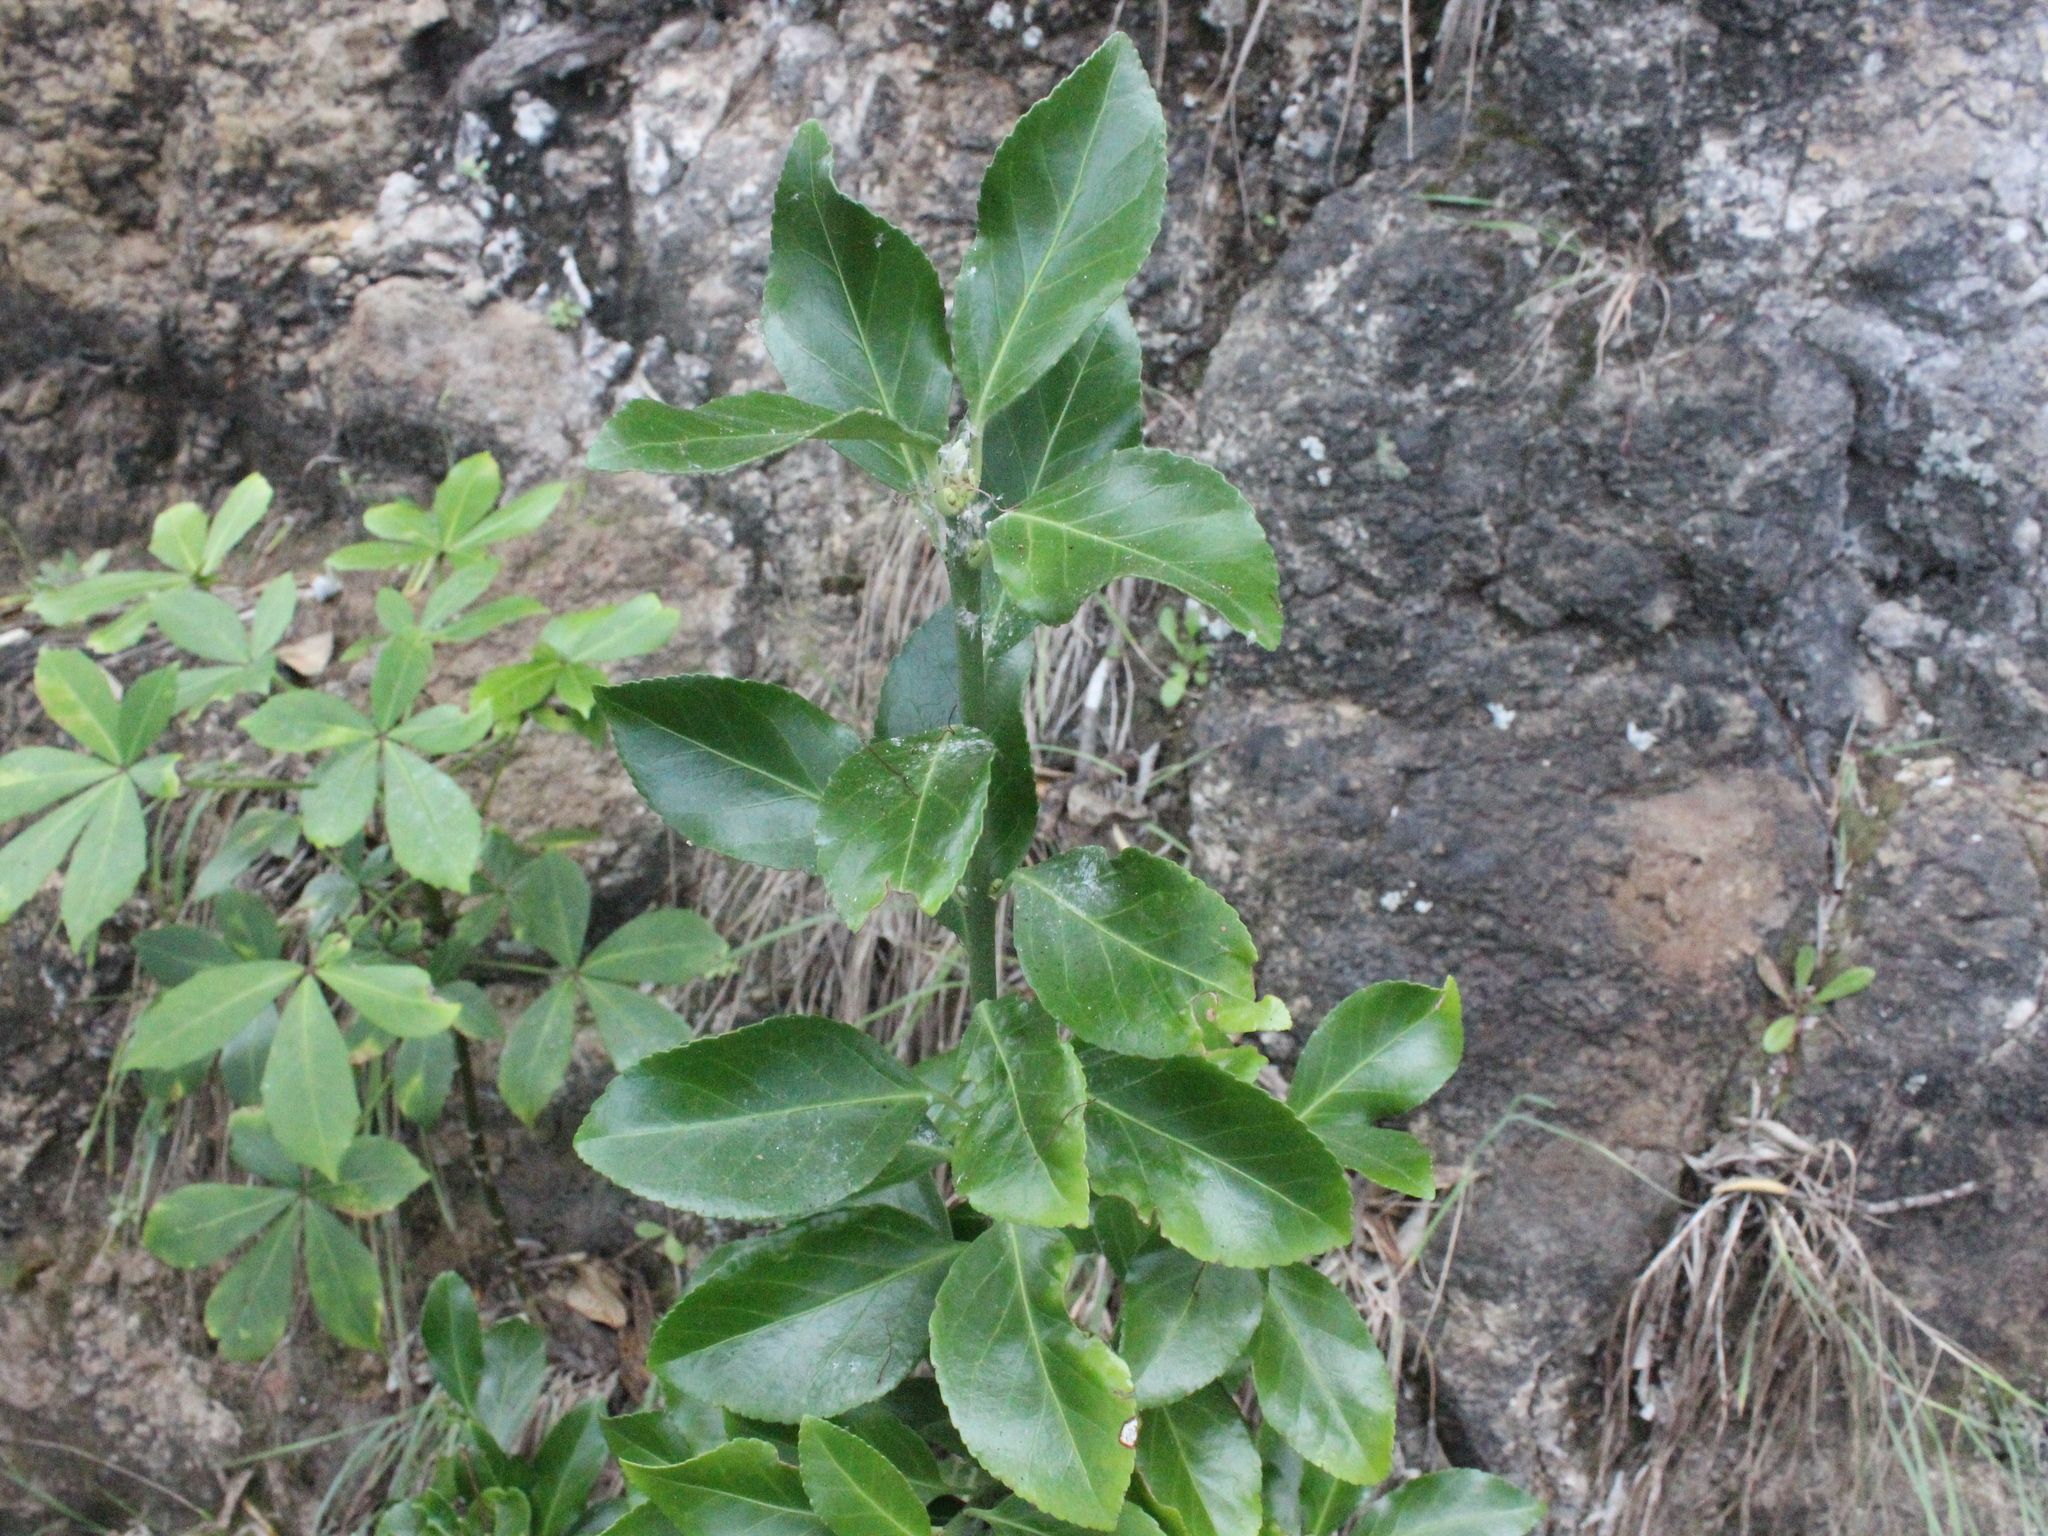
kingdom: Plantae
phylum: Tracheophyta
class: Magnoliopsida
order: Celastrales
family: Celastraceae
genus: Euonymus
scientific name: Euonymus japonicus
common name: Japanese spindletree
